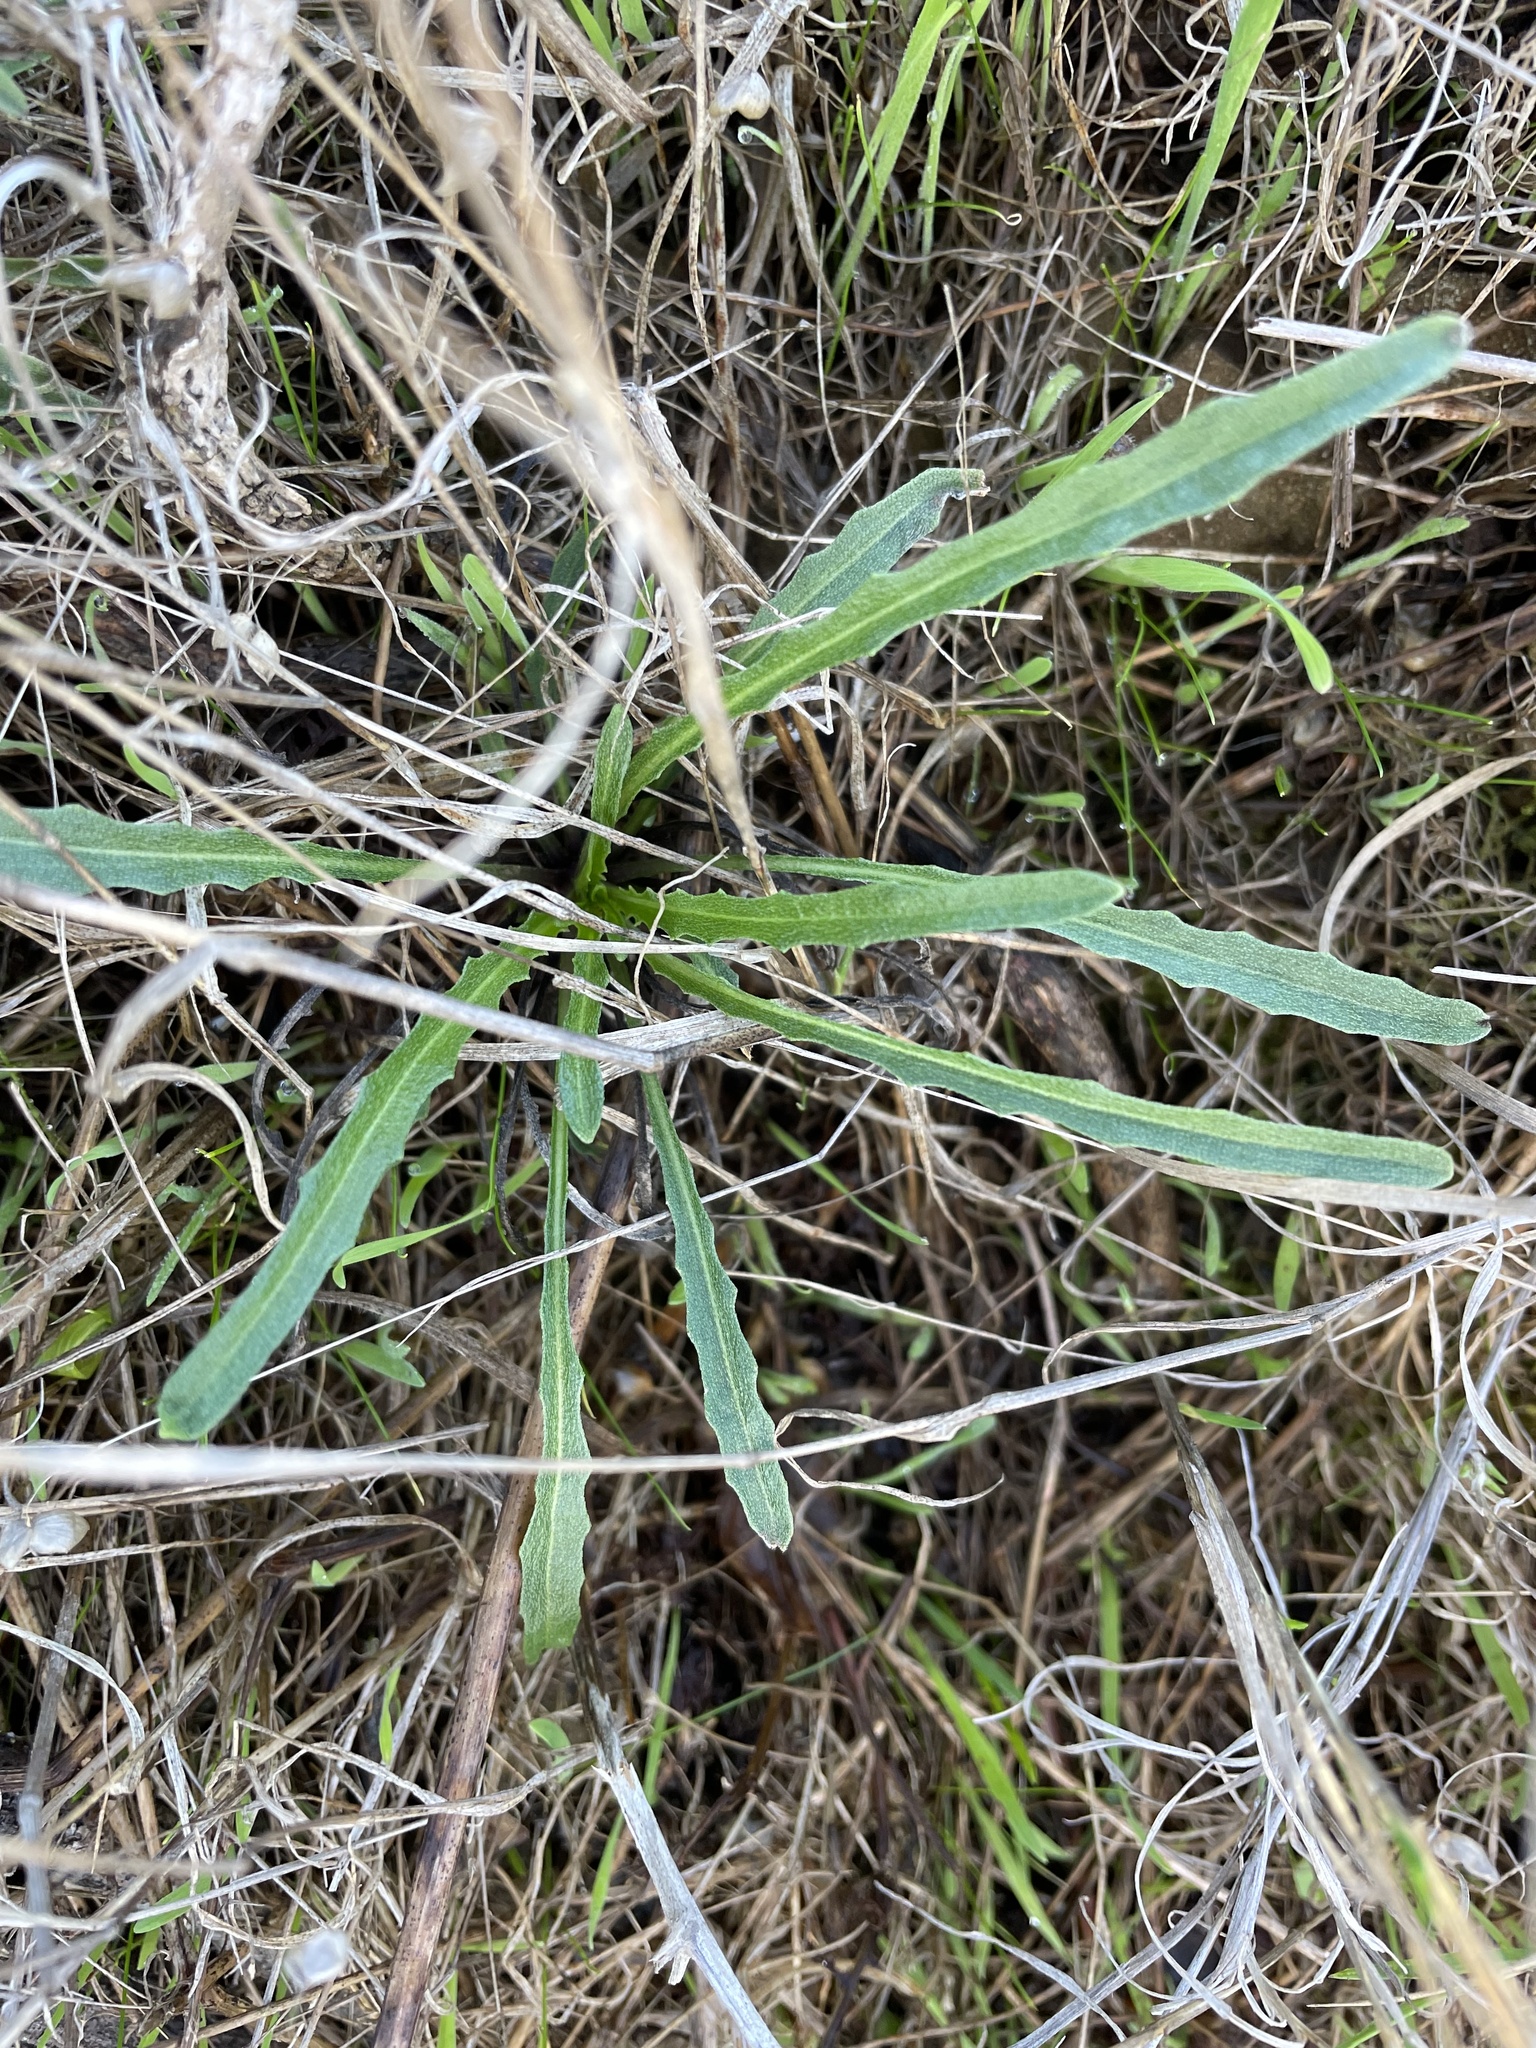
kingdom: Plantae
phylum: Tracheophyta
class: Magnoliopsida
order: Brassicales
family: Brassicaceae
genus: Erysimum
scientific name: Erysimum franciscanum
